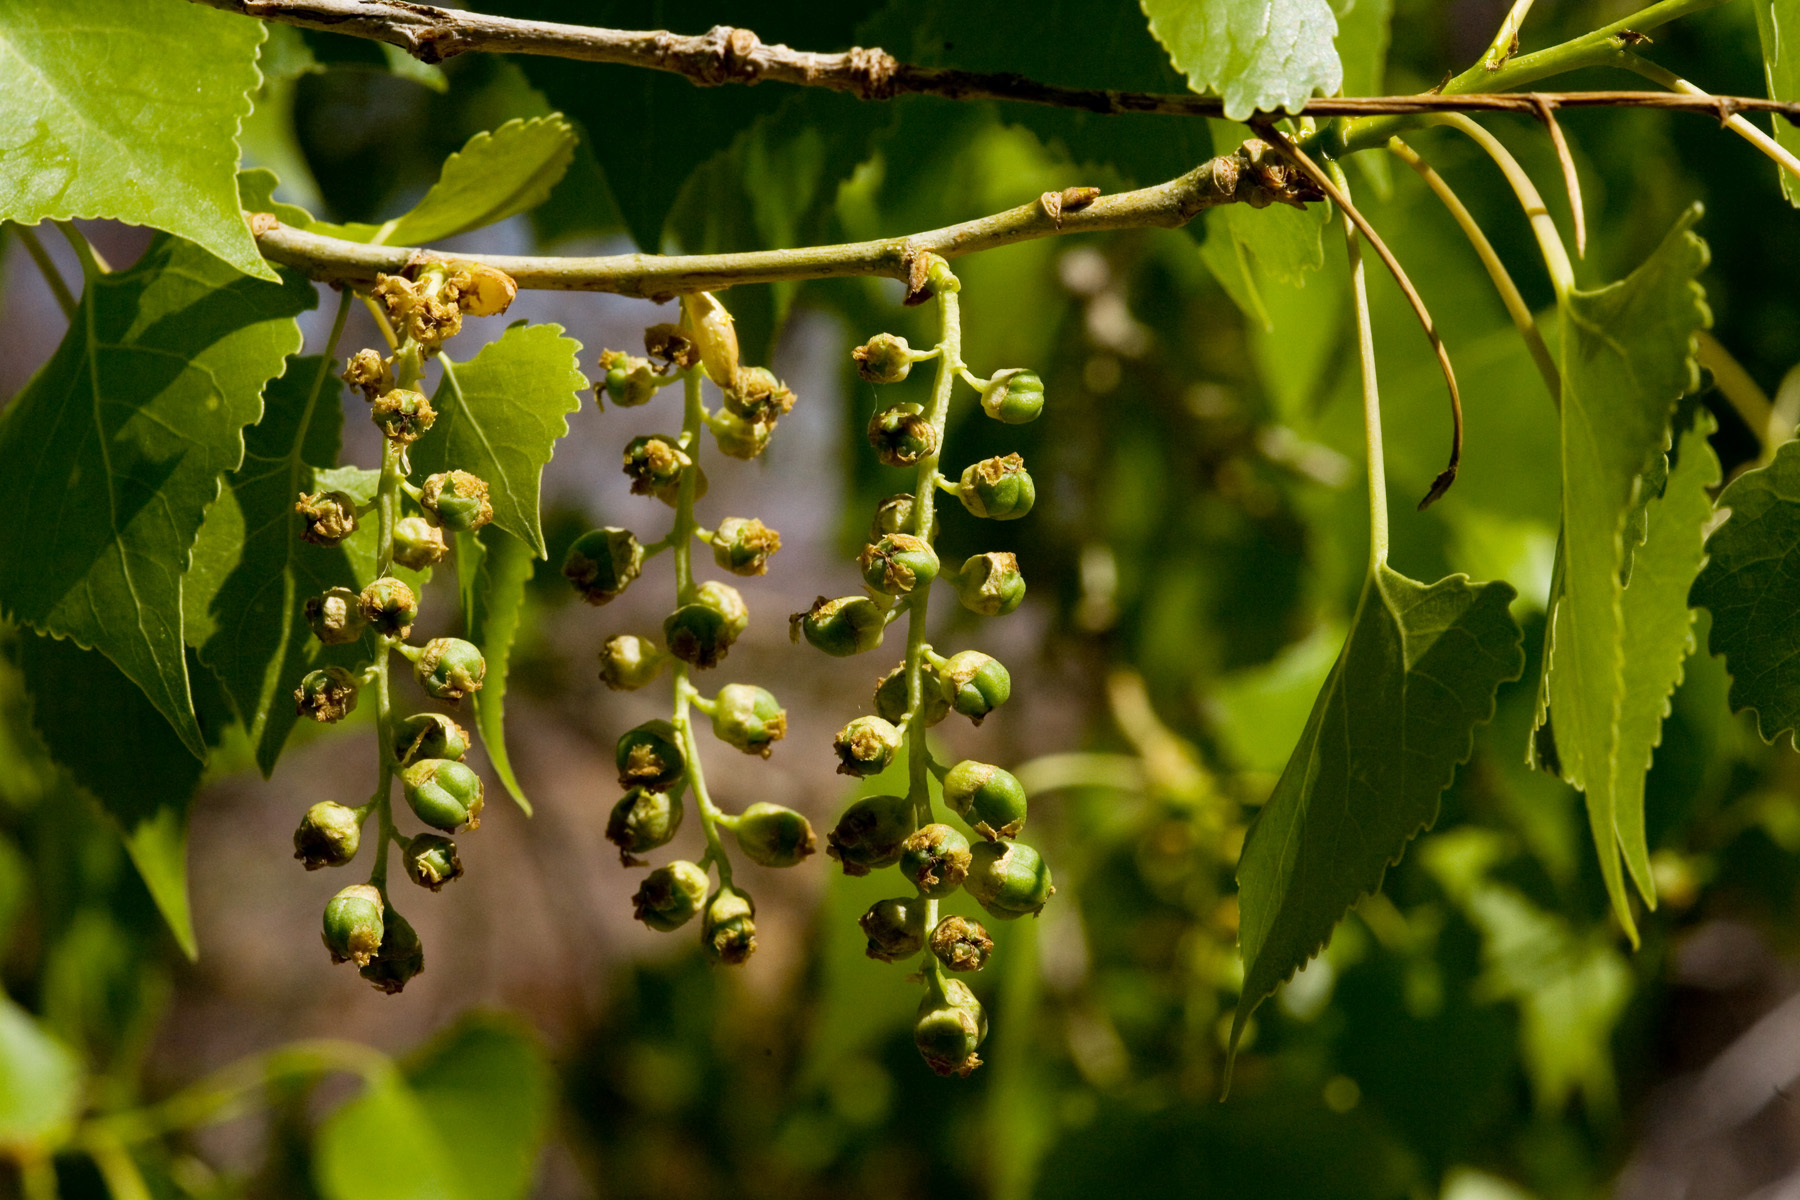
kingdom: Plantae
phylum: Tracheophyta
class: Magnoliopsida
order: Malpighiales
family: Salicaceae
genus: Populus
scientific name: Populus fremontii
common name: Fremont's cottonwood
